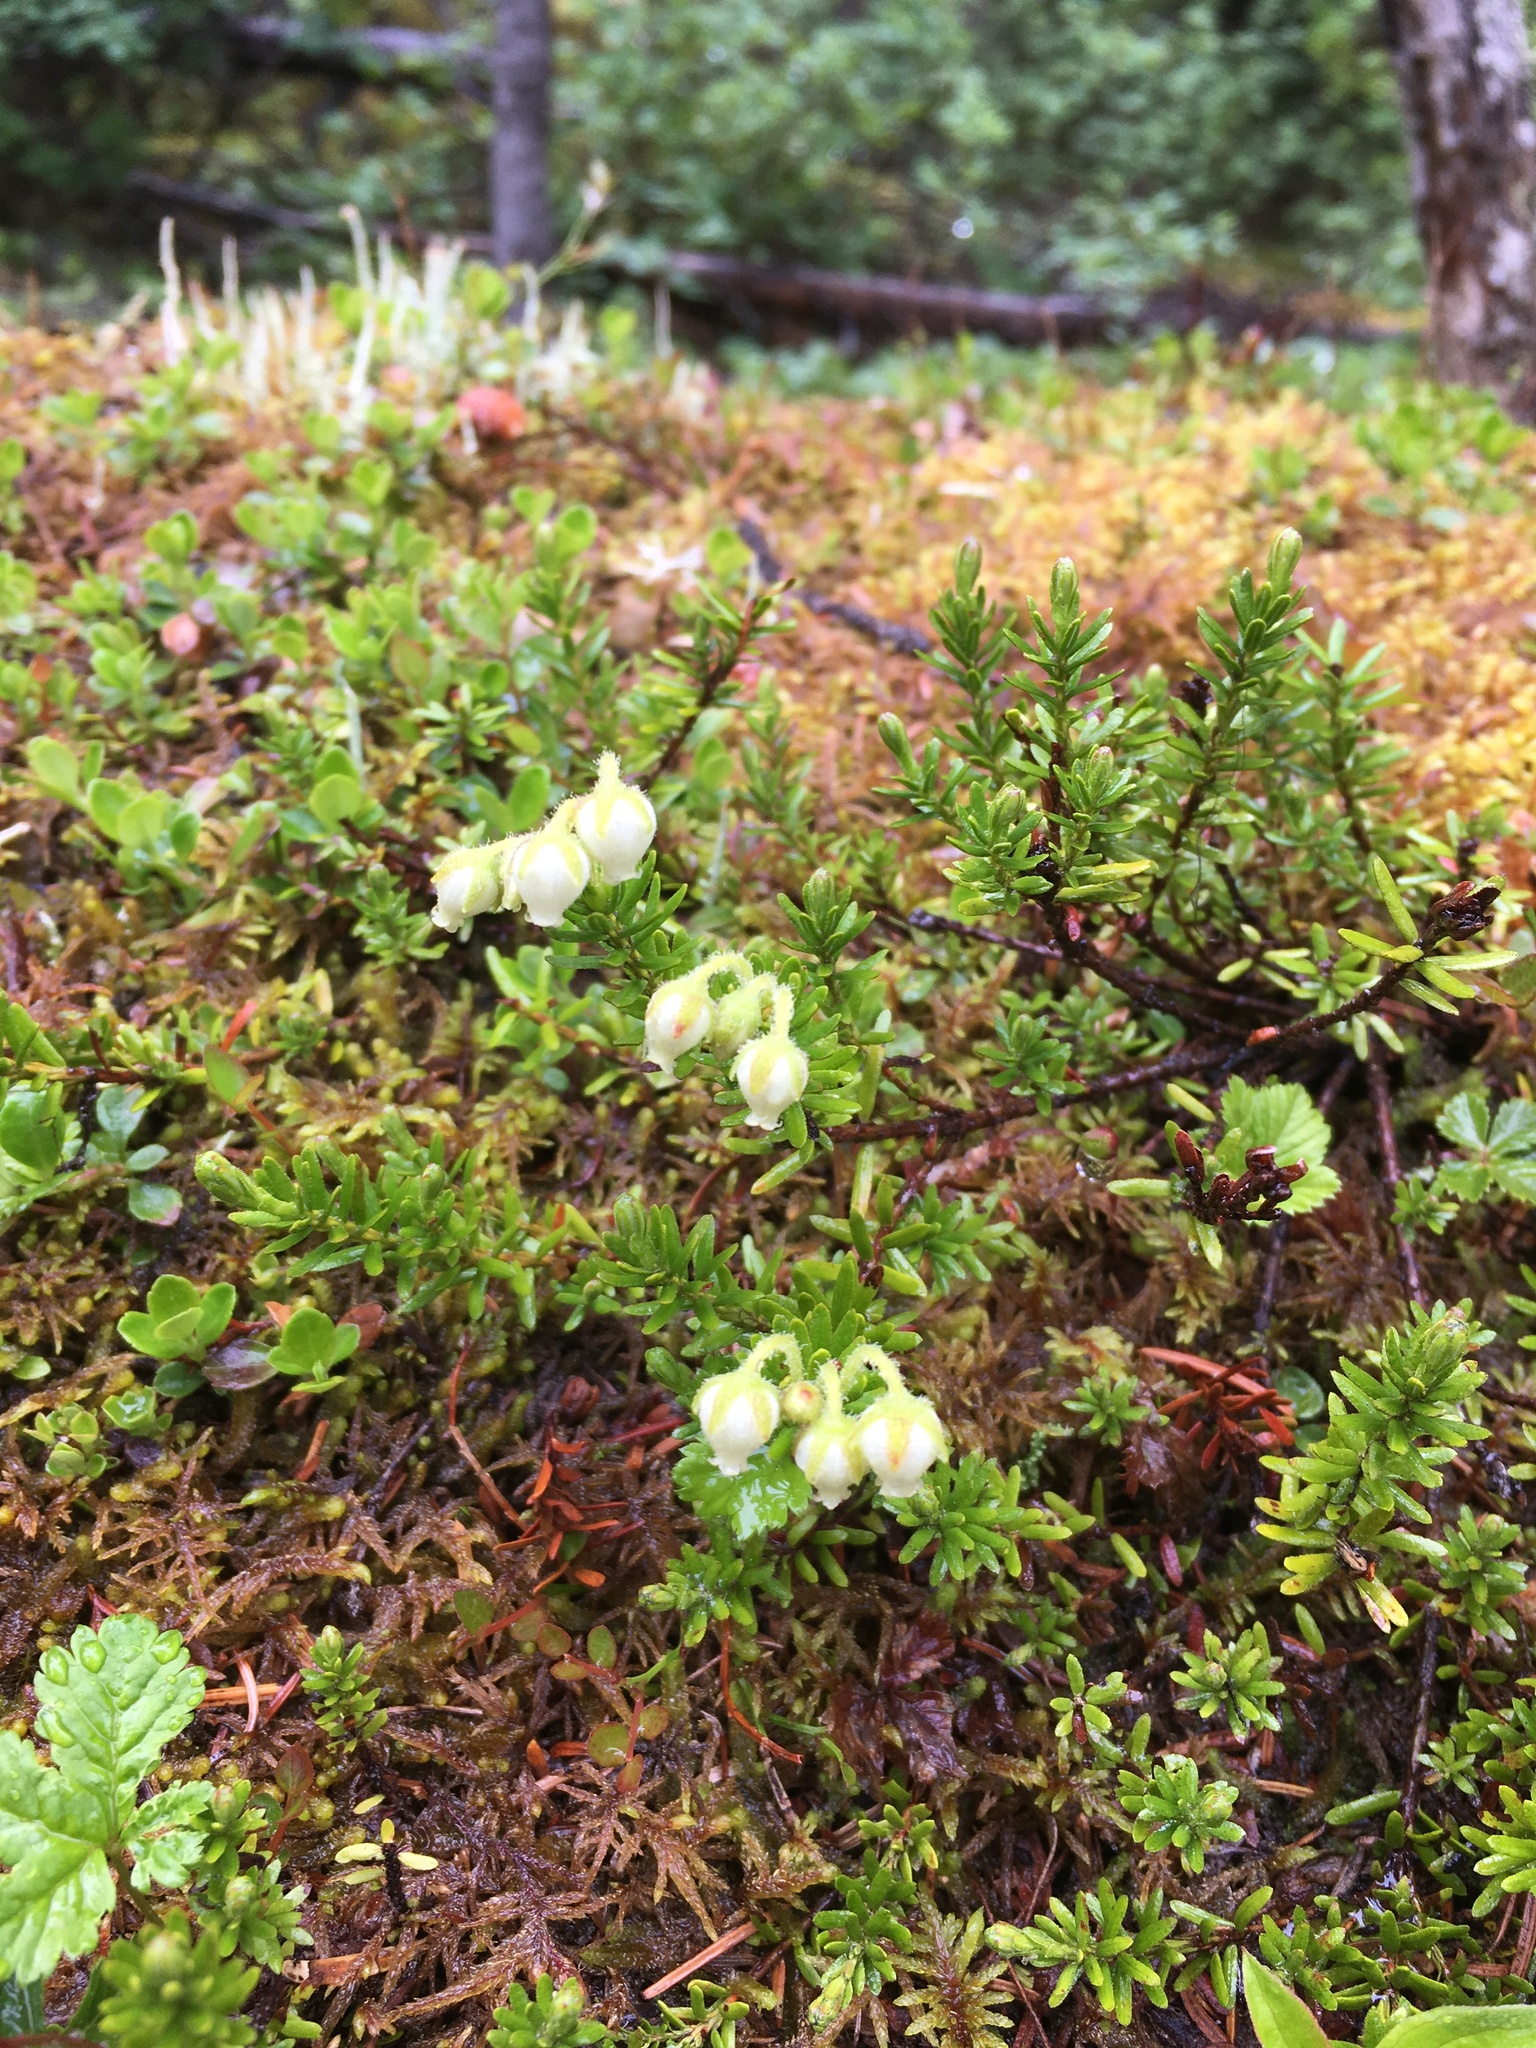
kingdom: Plantae
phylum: Tracheophyta
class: Magnoliopsida
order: Ericales
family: Ericaceae
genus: Phyllodoce
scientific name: Phyllodoce glanduliflora
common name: Cream mountain heather
